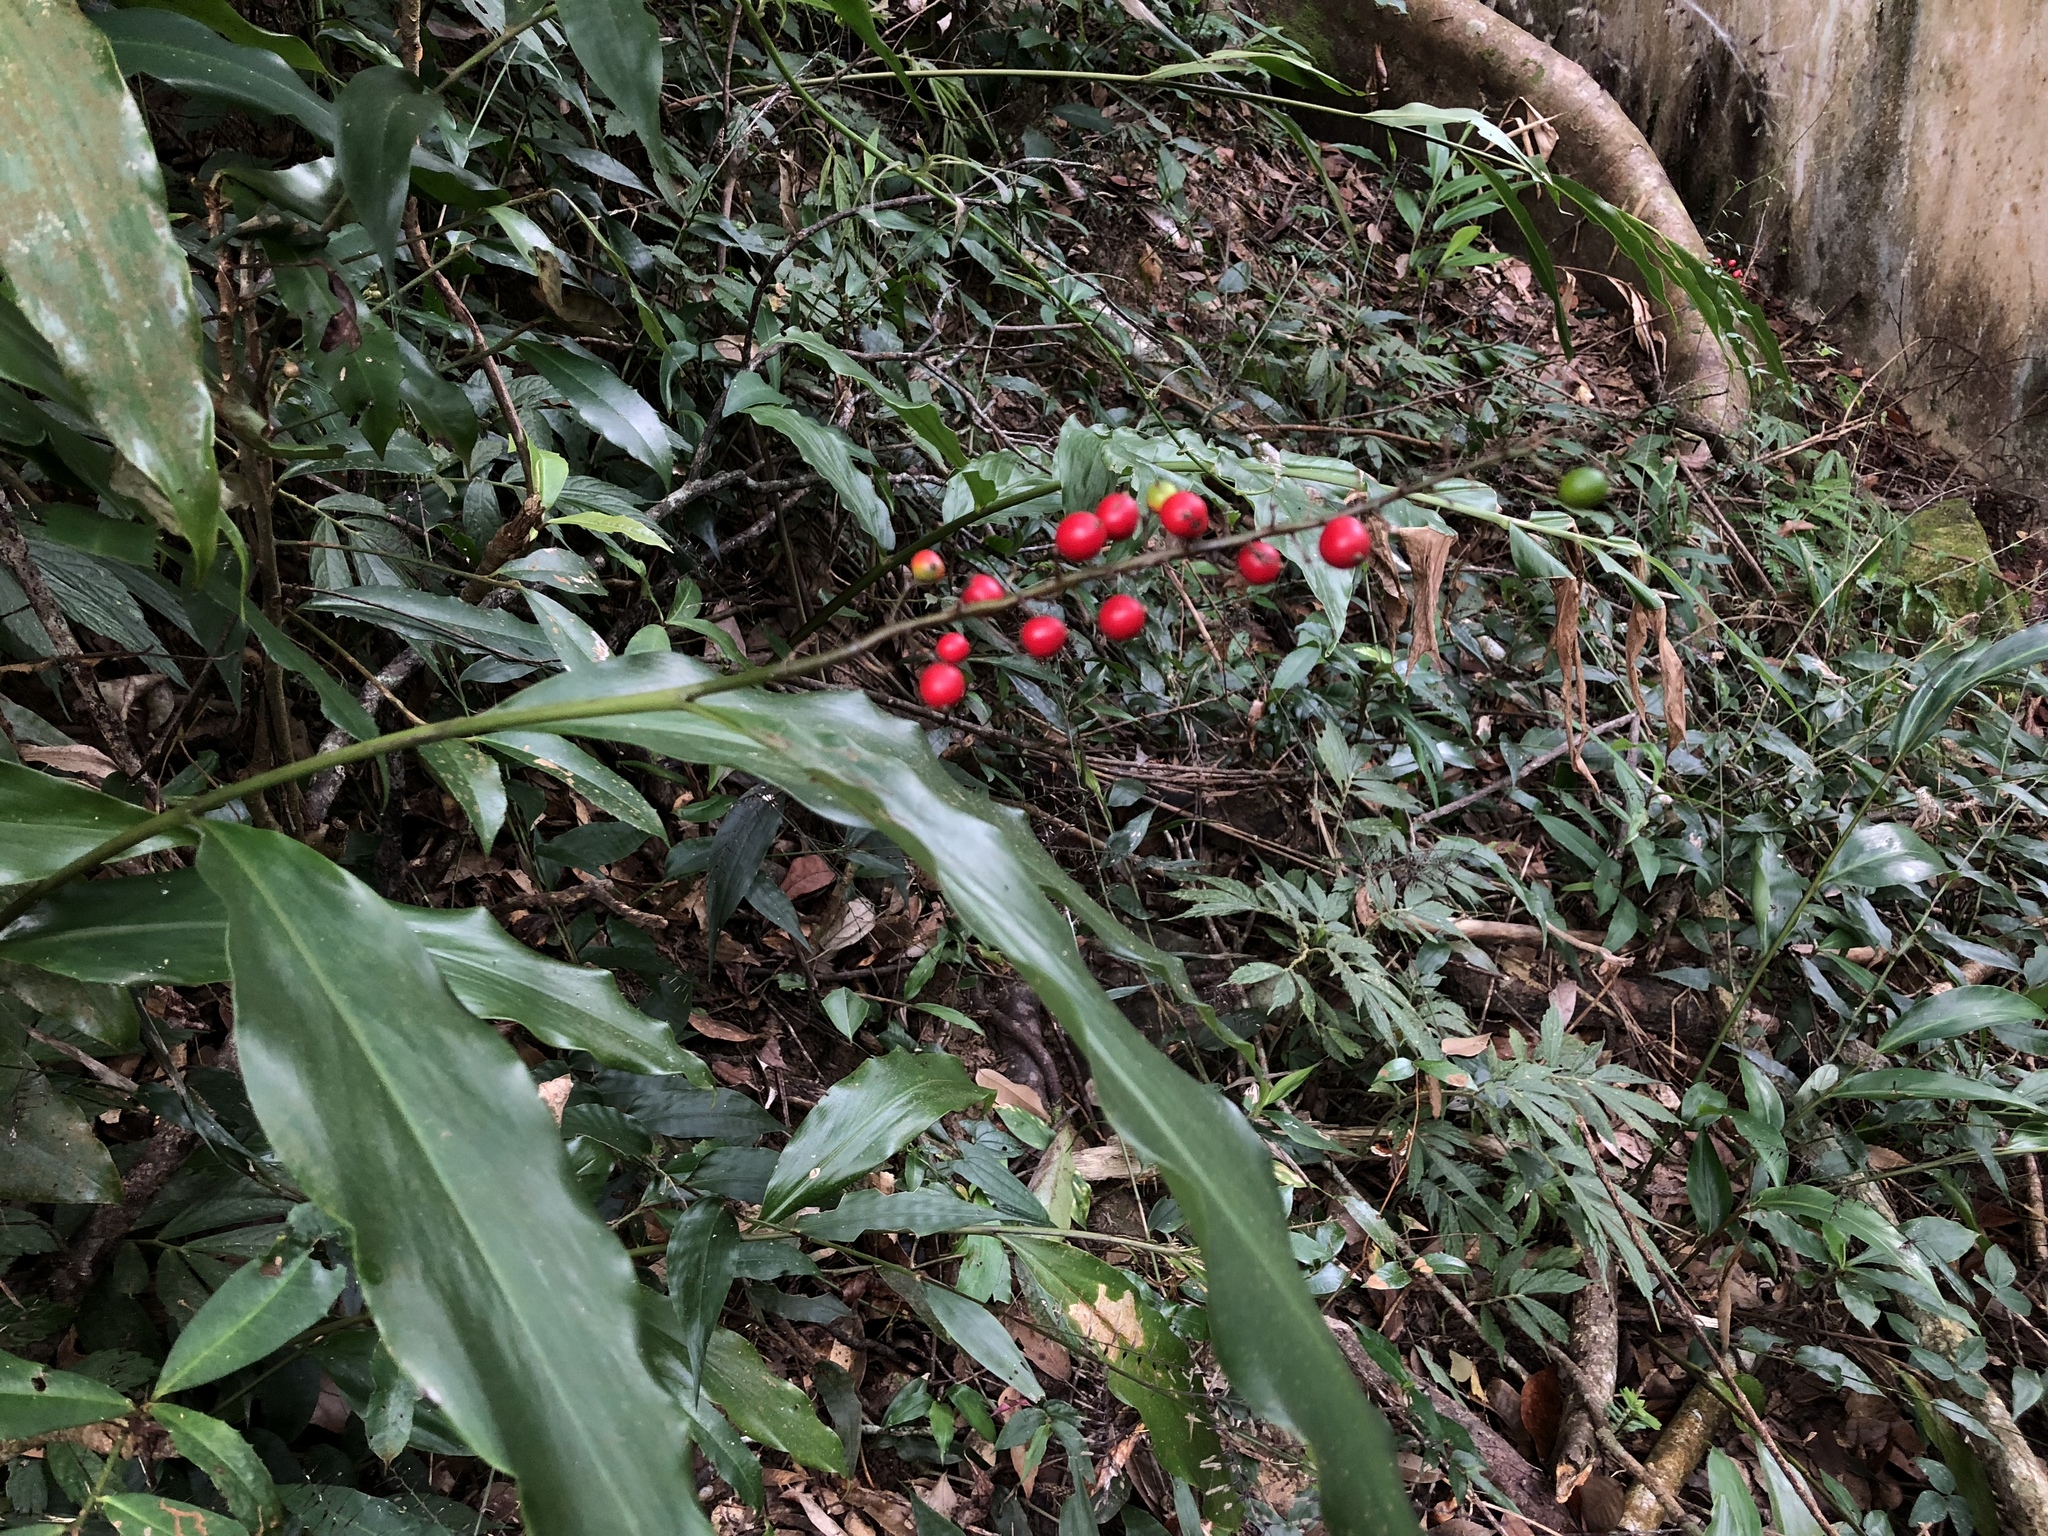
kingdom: Plantae
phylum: Tracheophyta
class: Liliopsida
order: Zingiberales
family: Zingiberaceae
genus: Alpinia
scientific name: Alpinia intermedia
